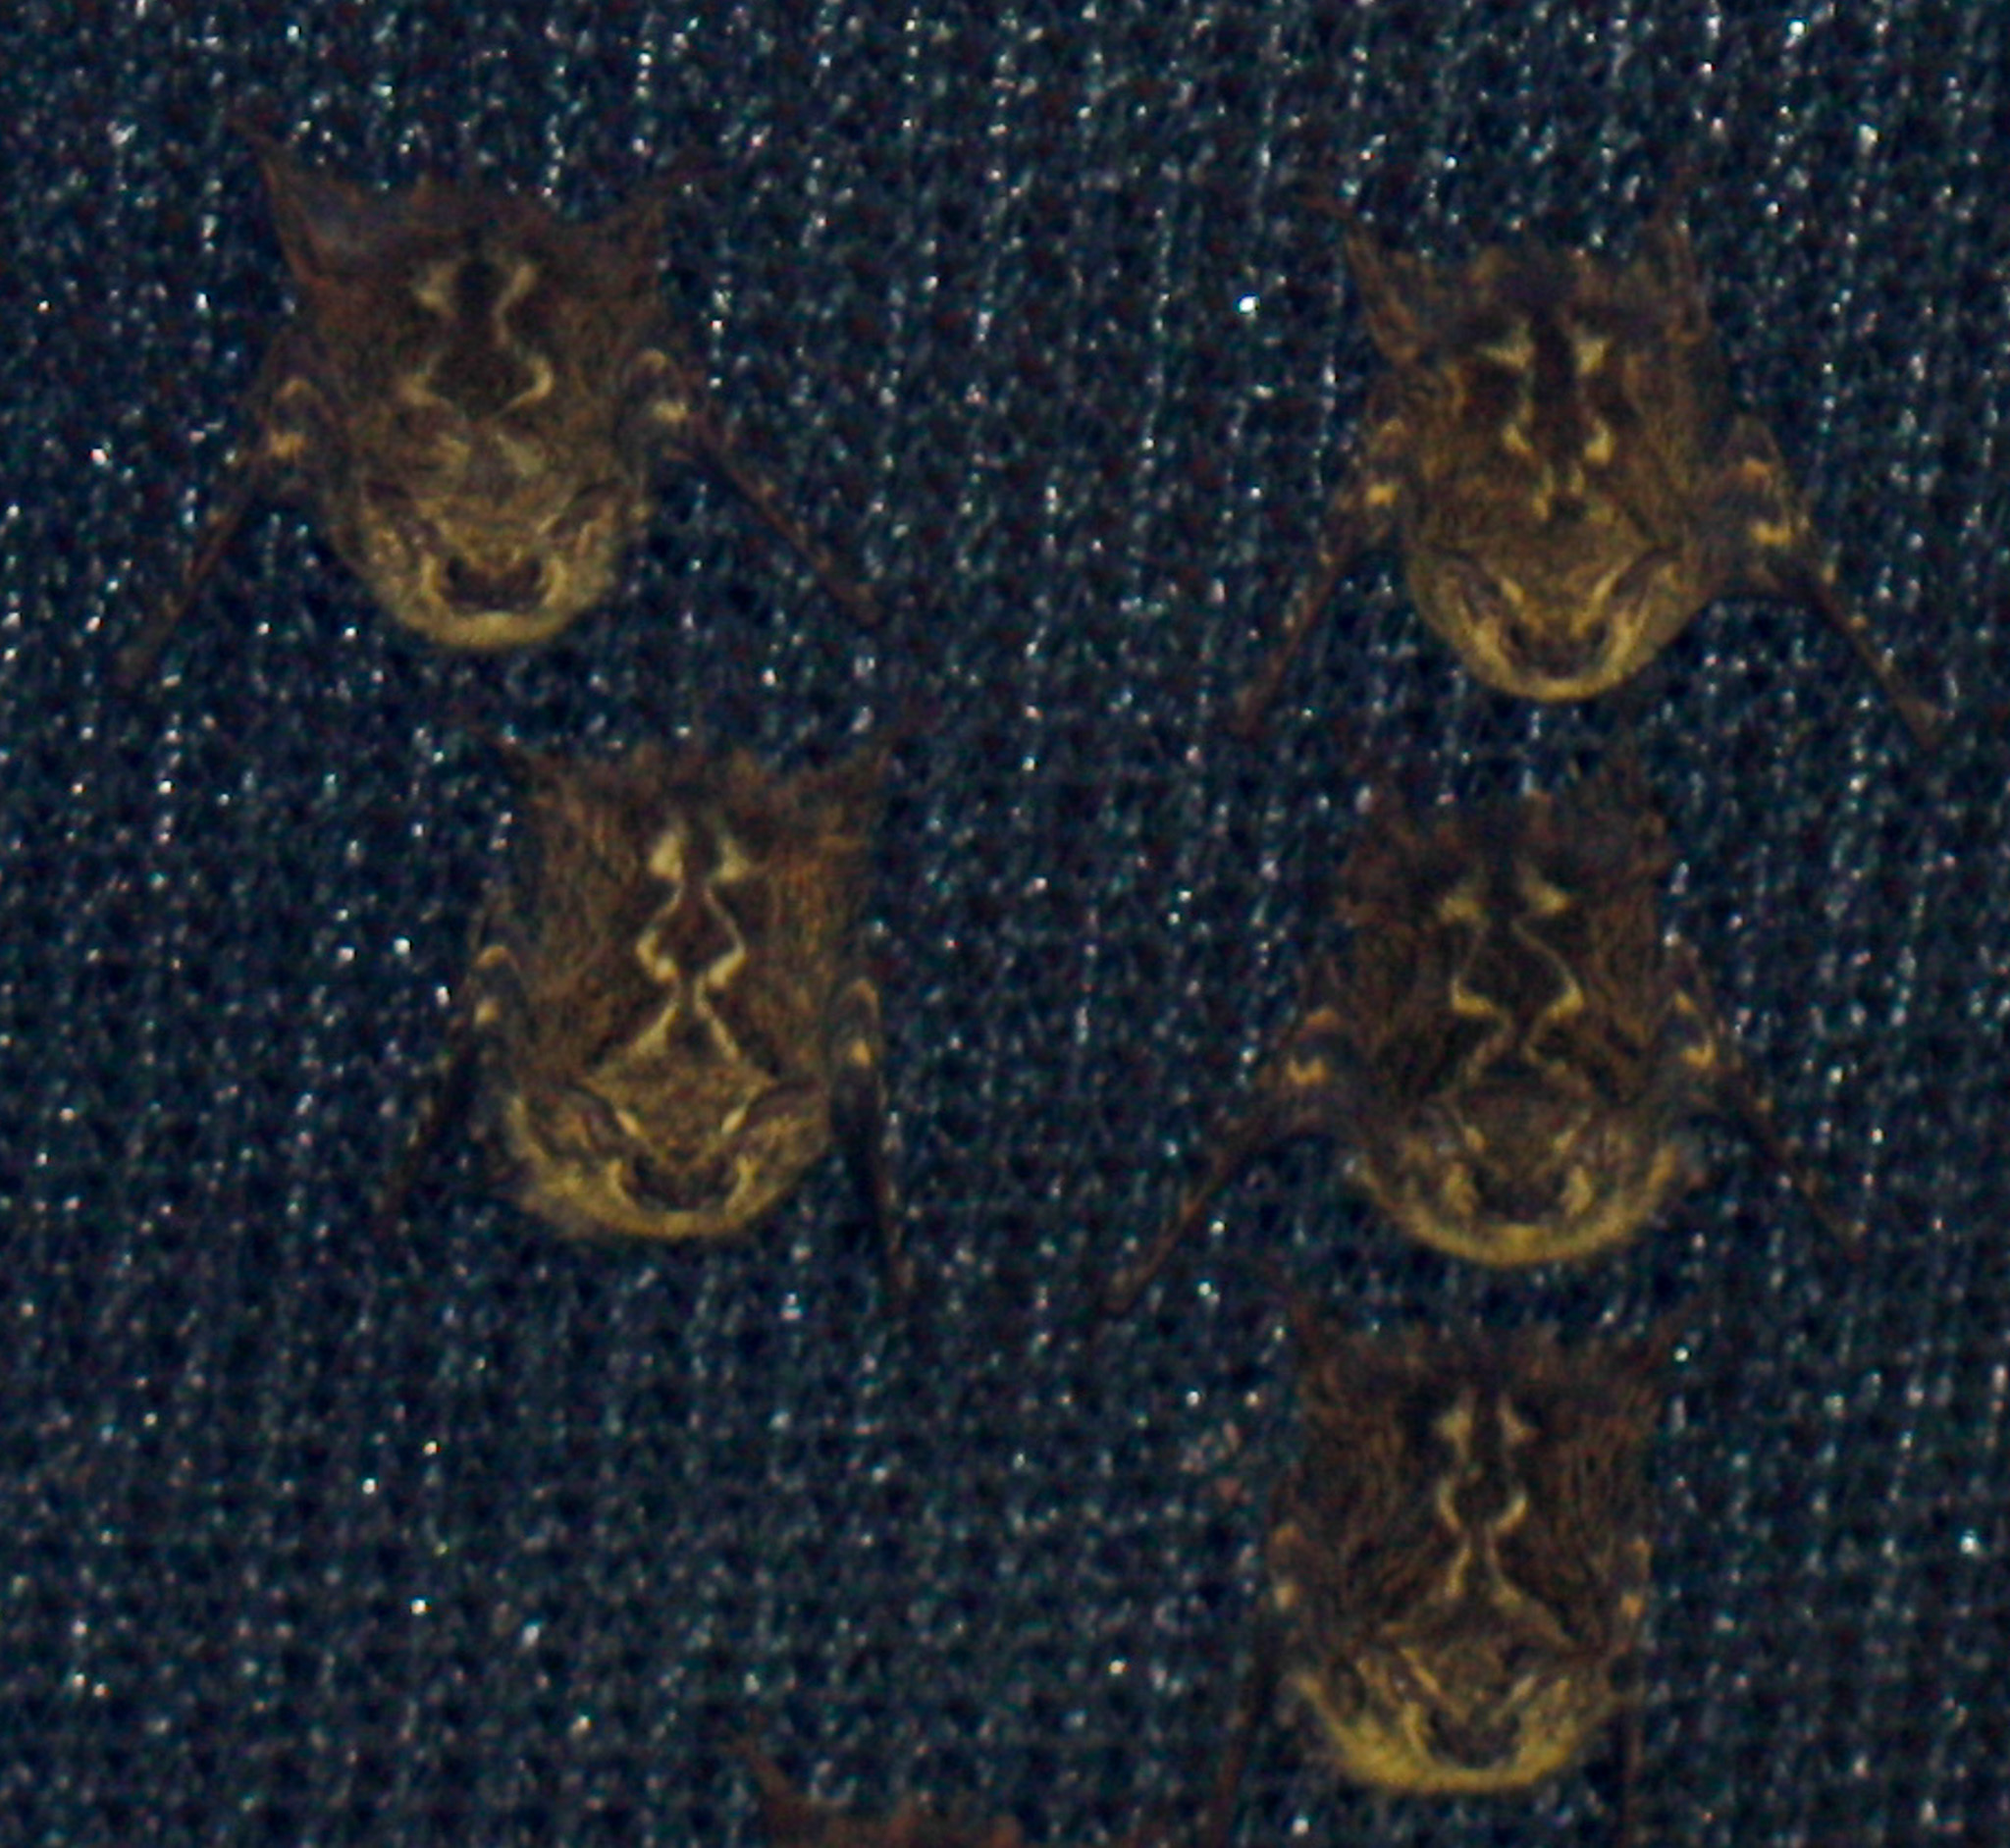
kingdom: Animalia
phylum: Chordata
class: Mammalia
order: Chiroptera
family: Emballonuridae
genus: Rhynchonycteris
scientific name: Rhynchonycteris naso
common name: Proboscis bat
